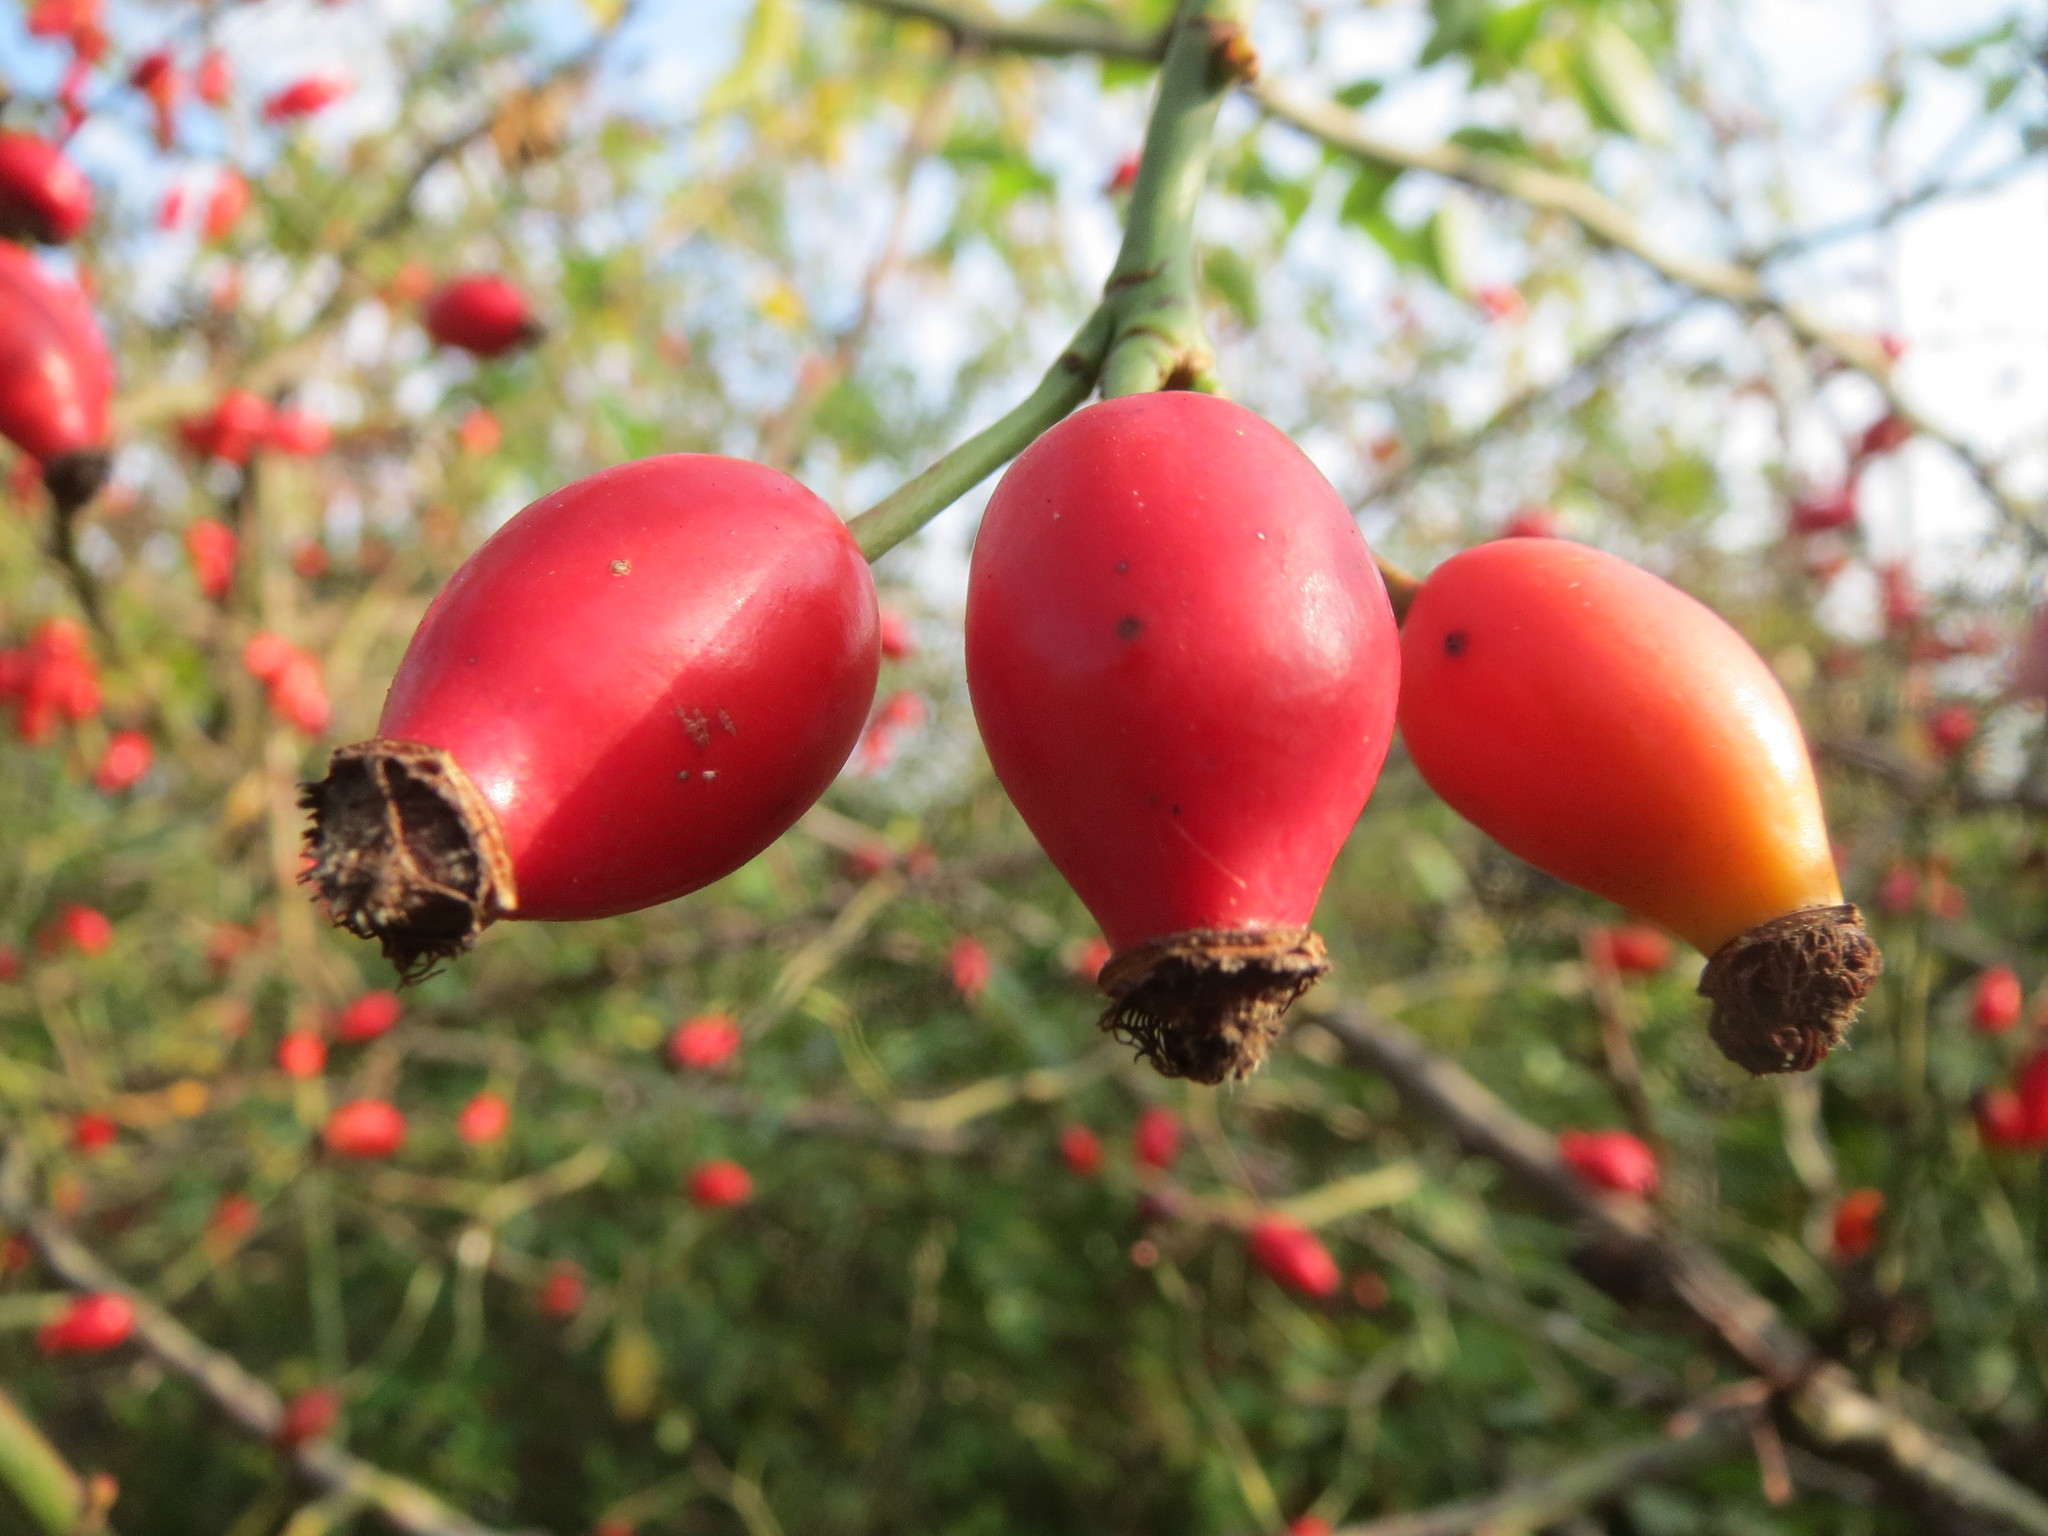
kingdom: Plantae
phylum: Tracheophyta
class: Magnoliopsida
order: Rosales
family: Rosaceae
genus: Rosa
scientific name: Rosa canina
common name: Dog rose
